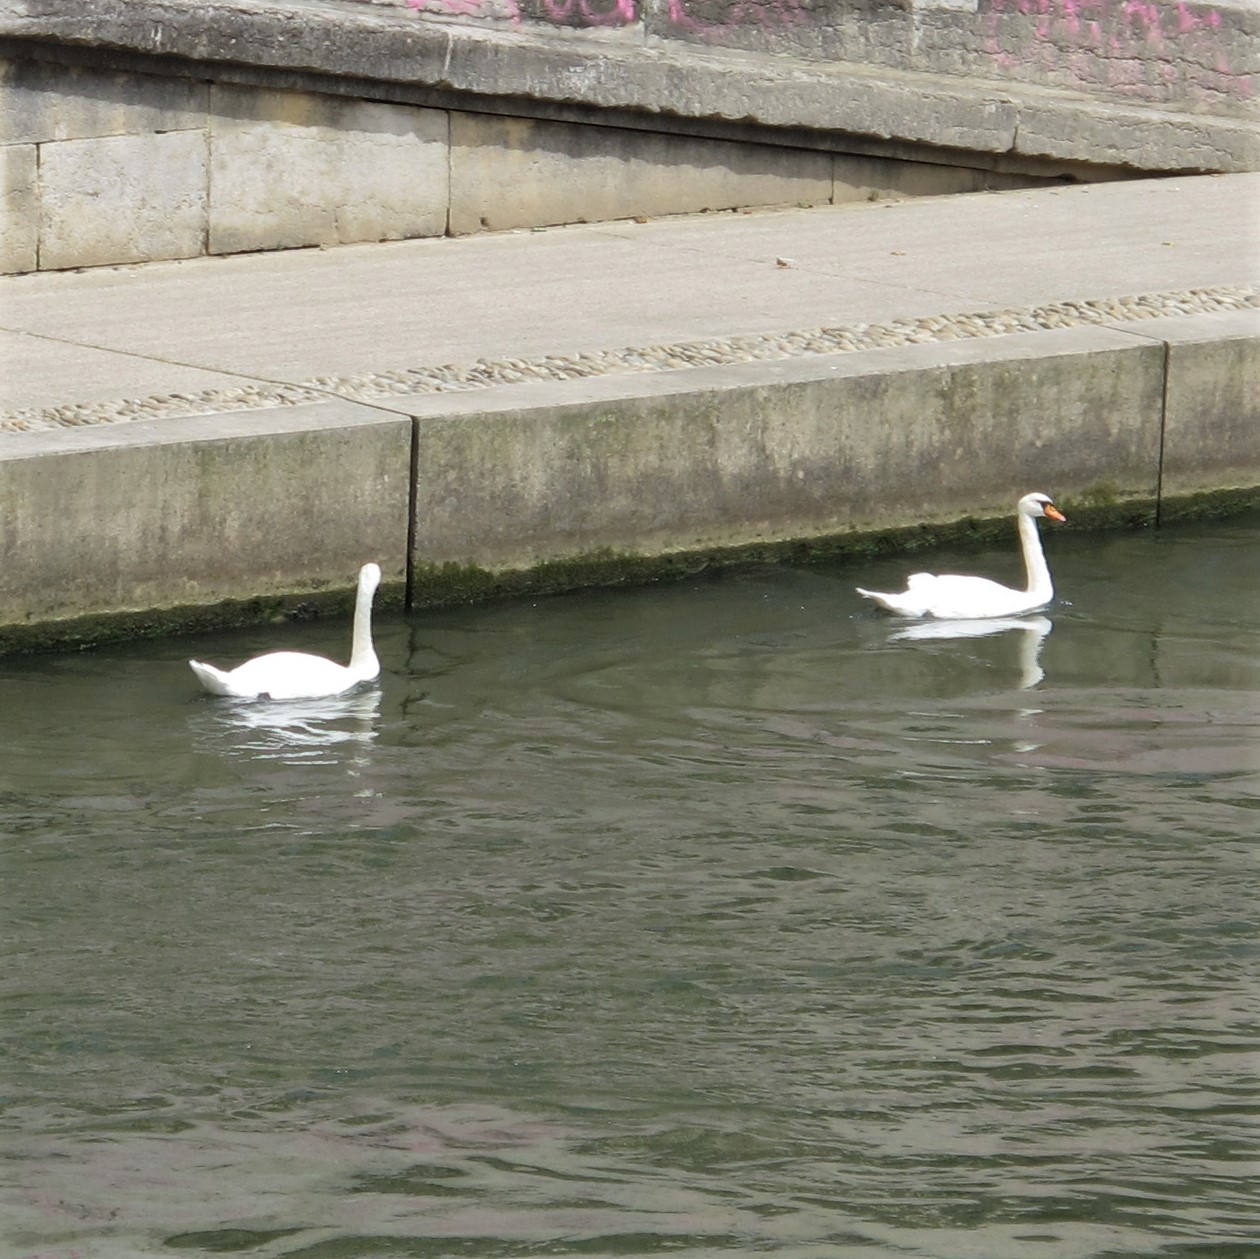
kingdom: Animalia
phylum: Chordata
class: Aves
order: Anseriformes
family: Anatidae
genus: Cygnus
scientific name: Cygnus olor
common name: Mute swan
